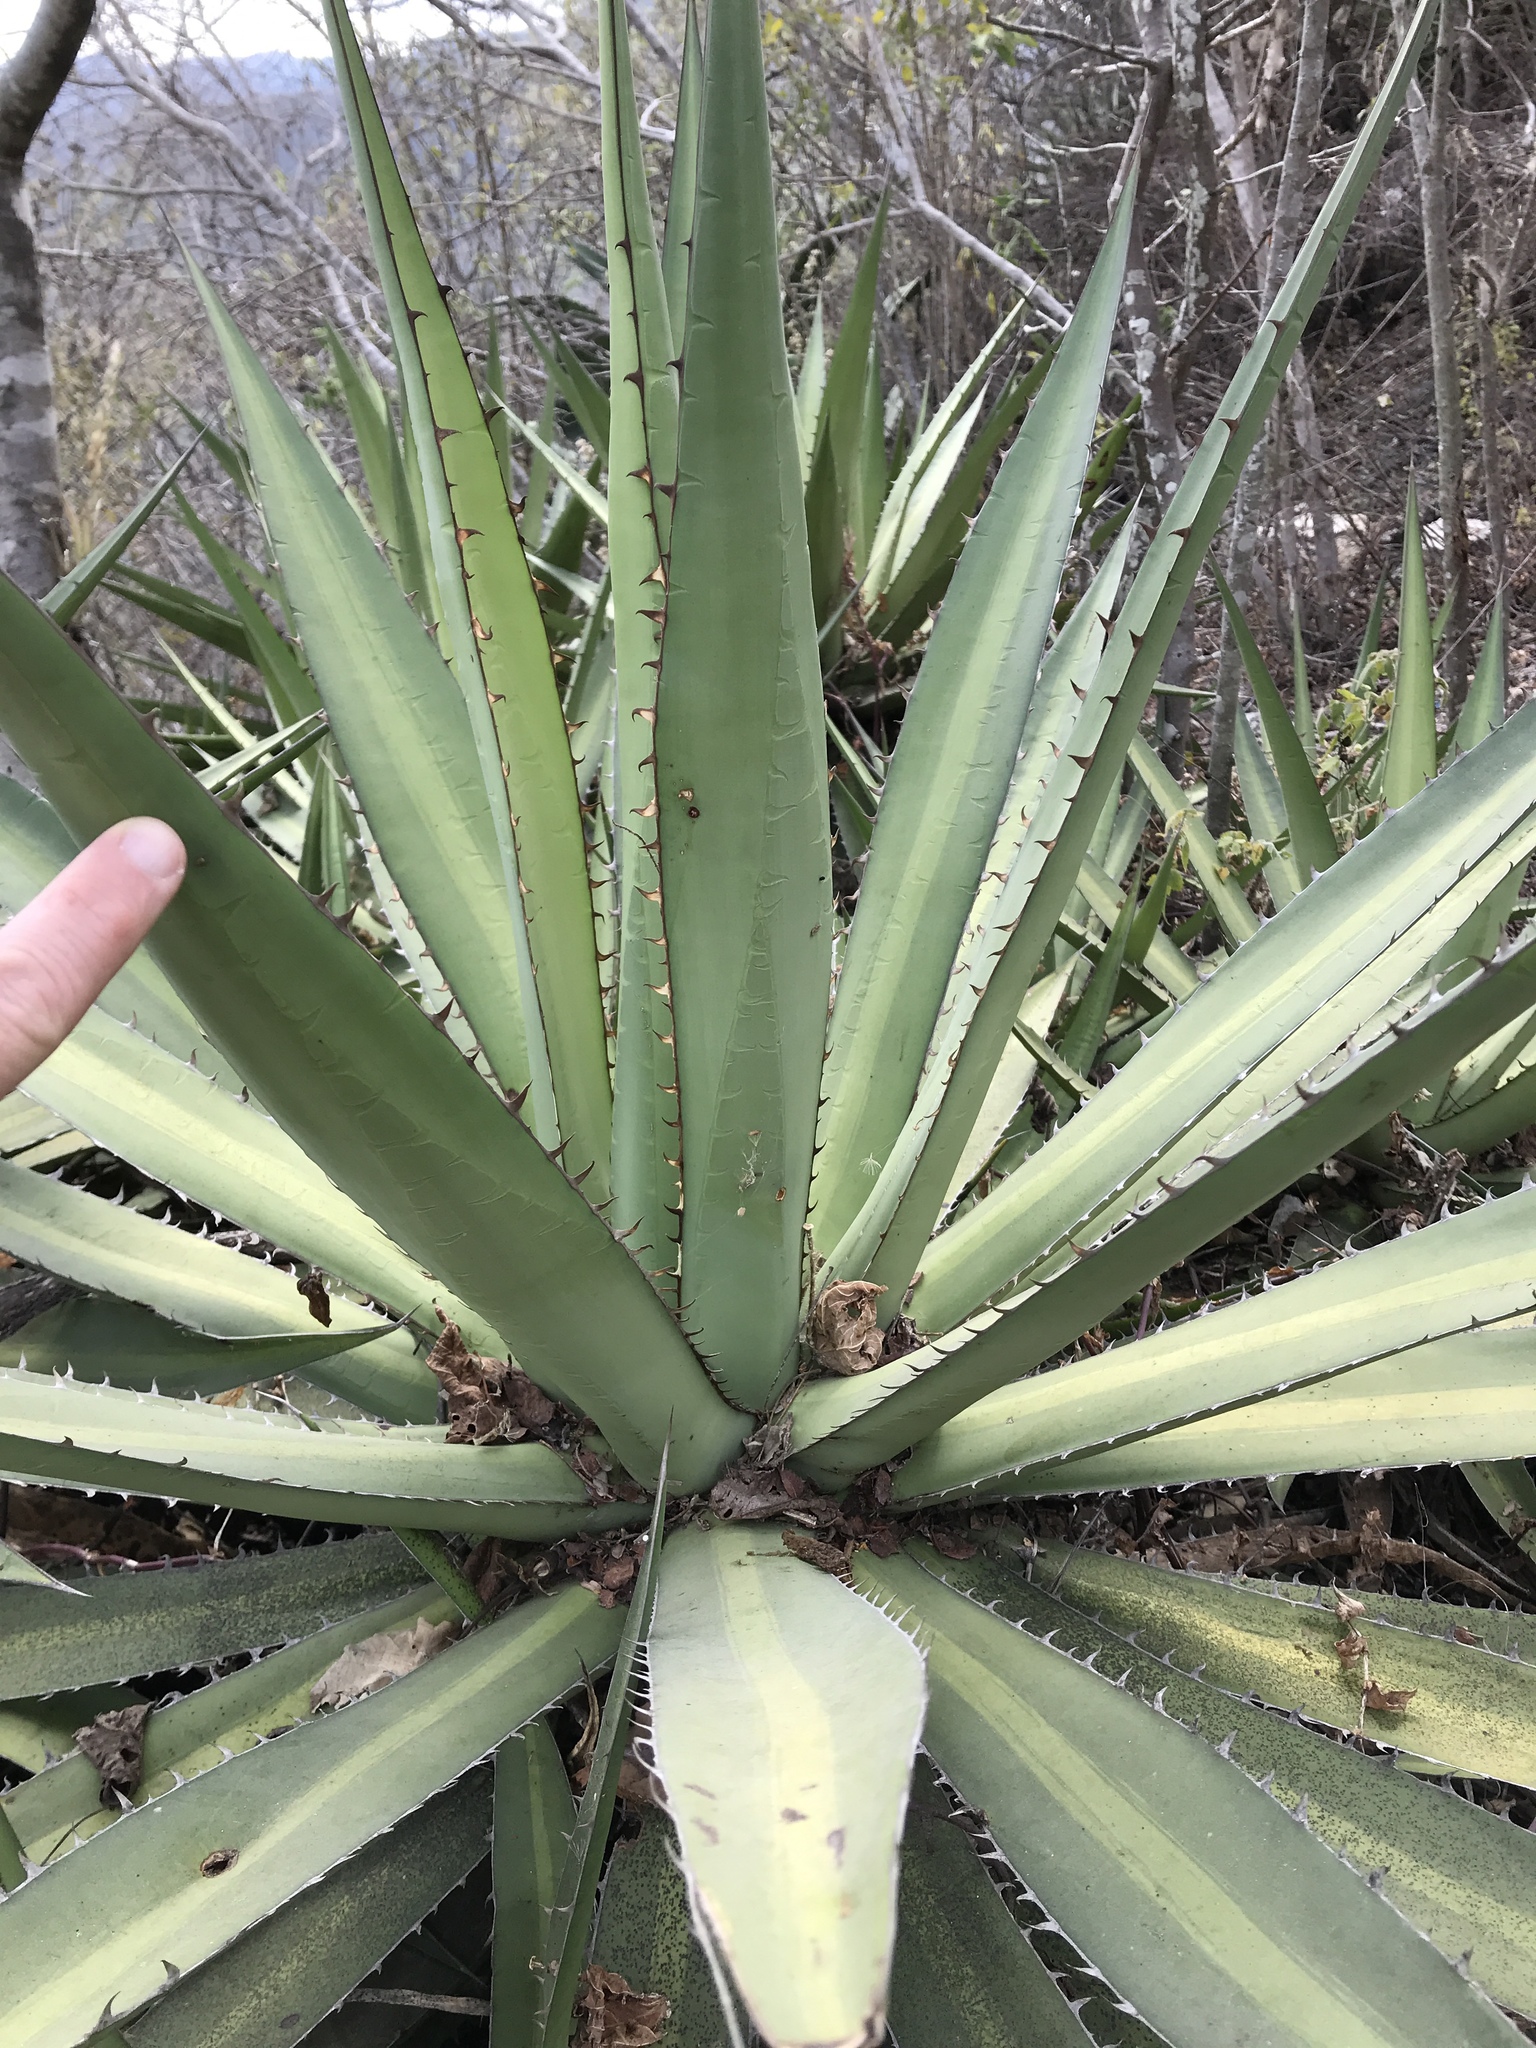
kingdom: Plantae
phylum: Tracheophyta
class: Liliopsida
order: Asparagales
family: Asparagaceae
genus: Agave
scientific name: Agave convallis
